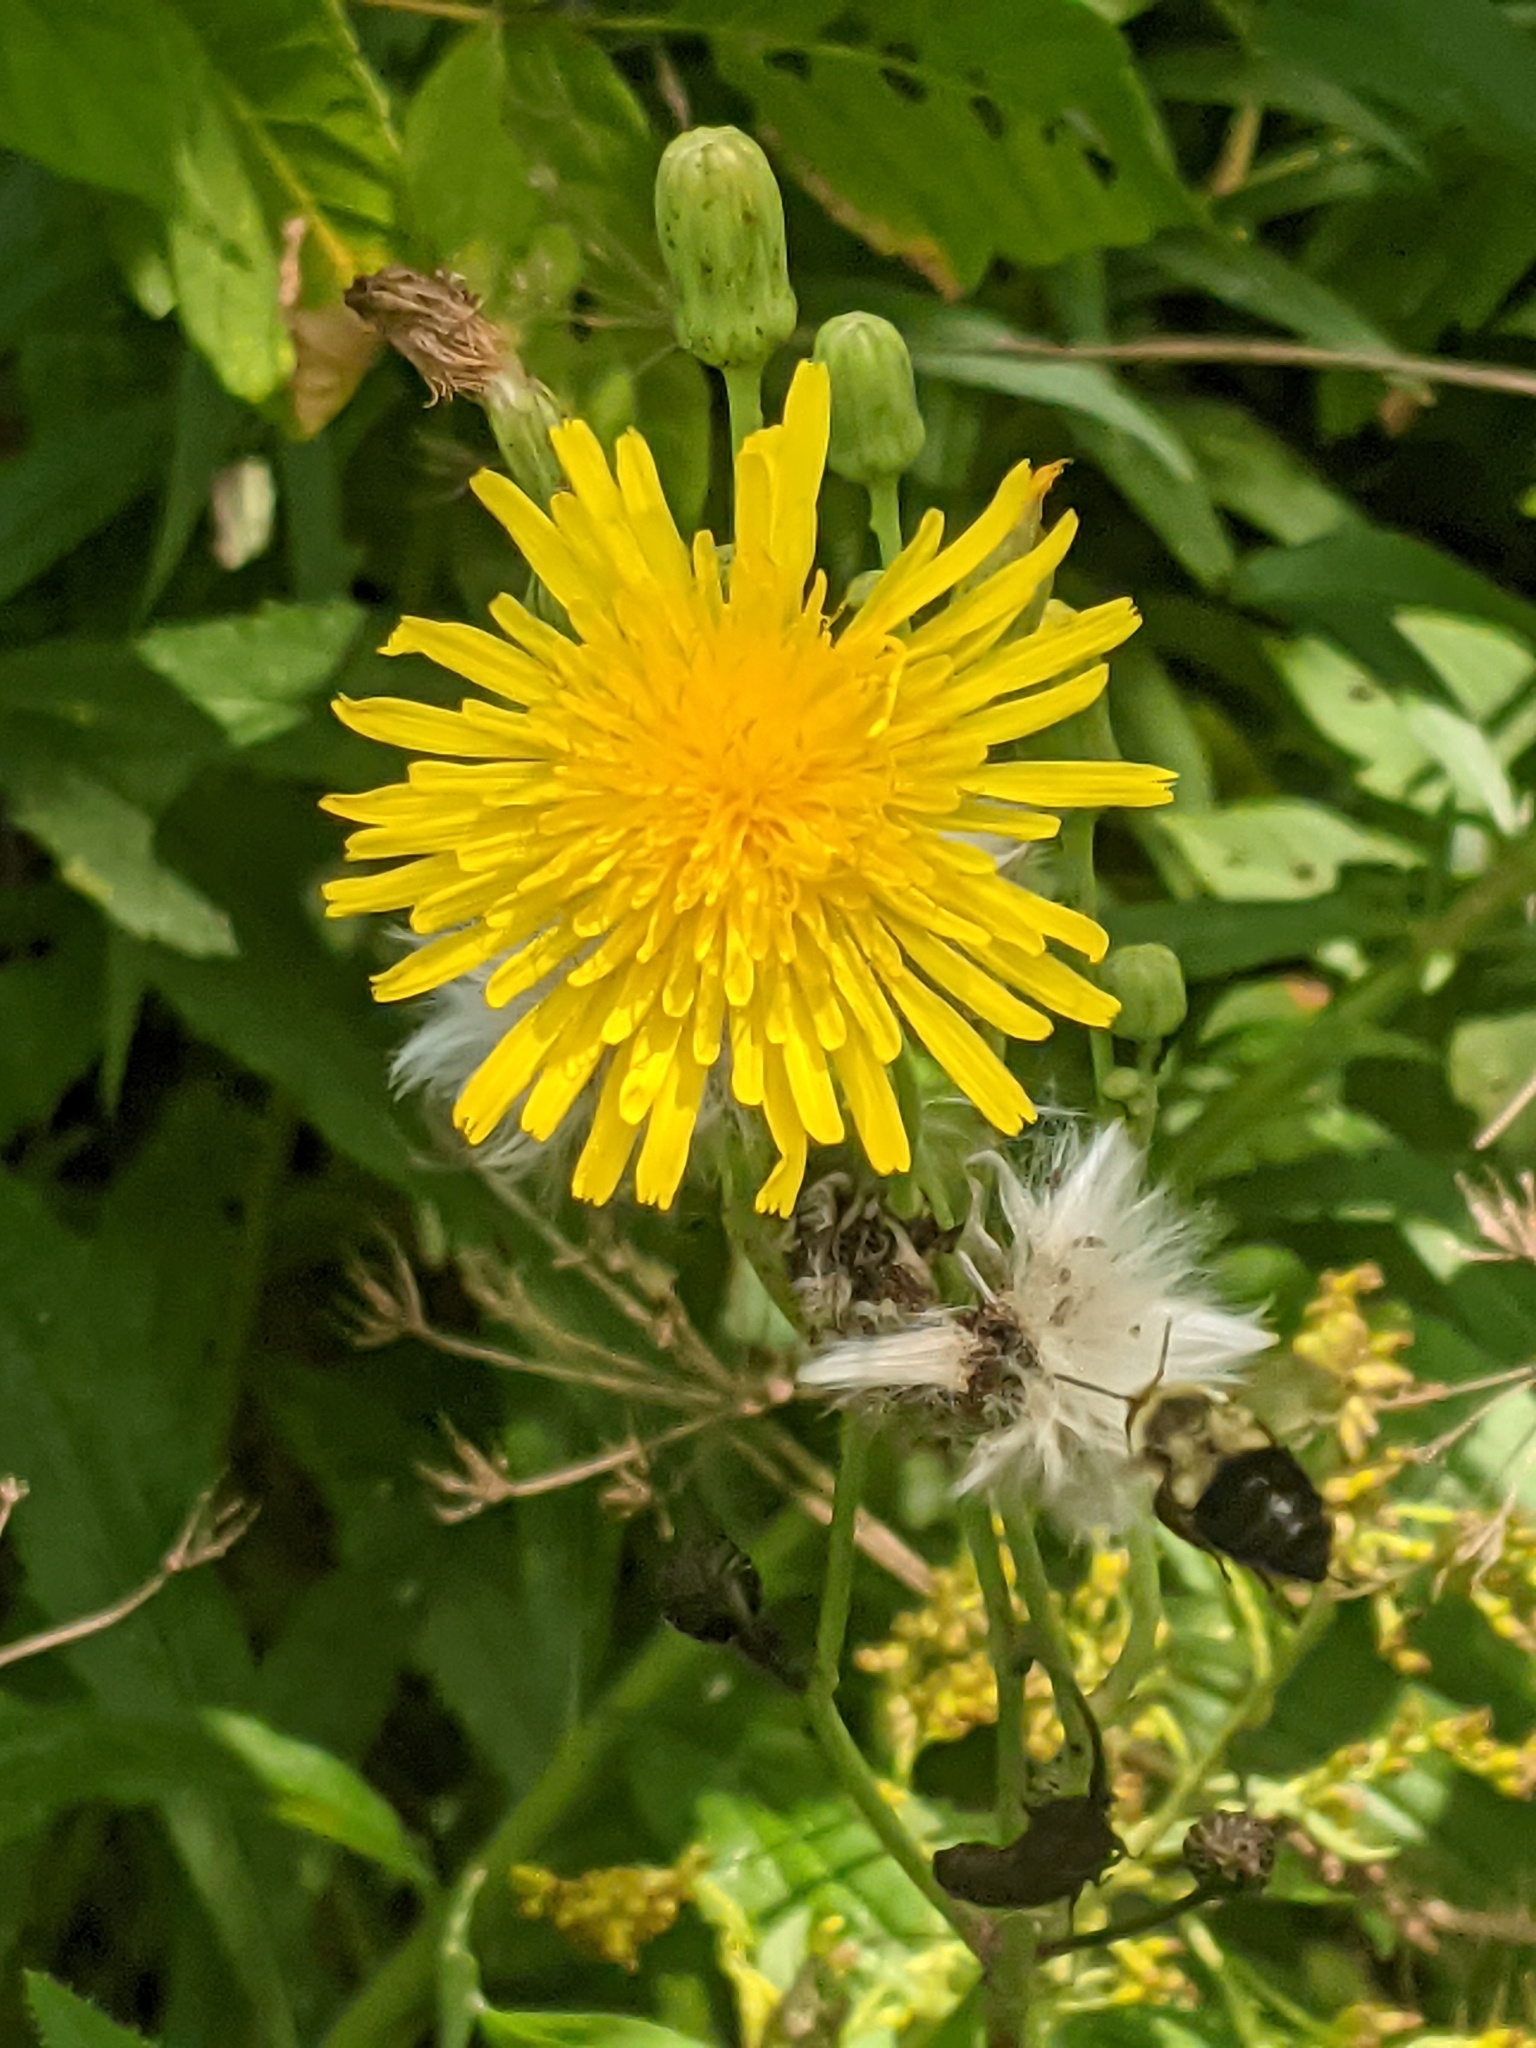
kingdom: Plantae
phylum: Tracheophyta
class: Magnoliopsida
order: Asterales
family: Asteraceae
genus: Sonchus
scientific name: Sonchus arvensis
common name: Perennial sow-thistle
